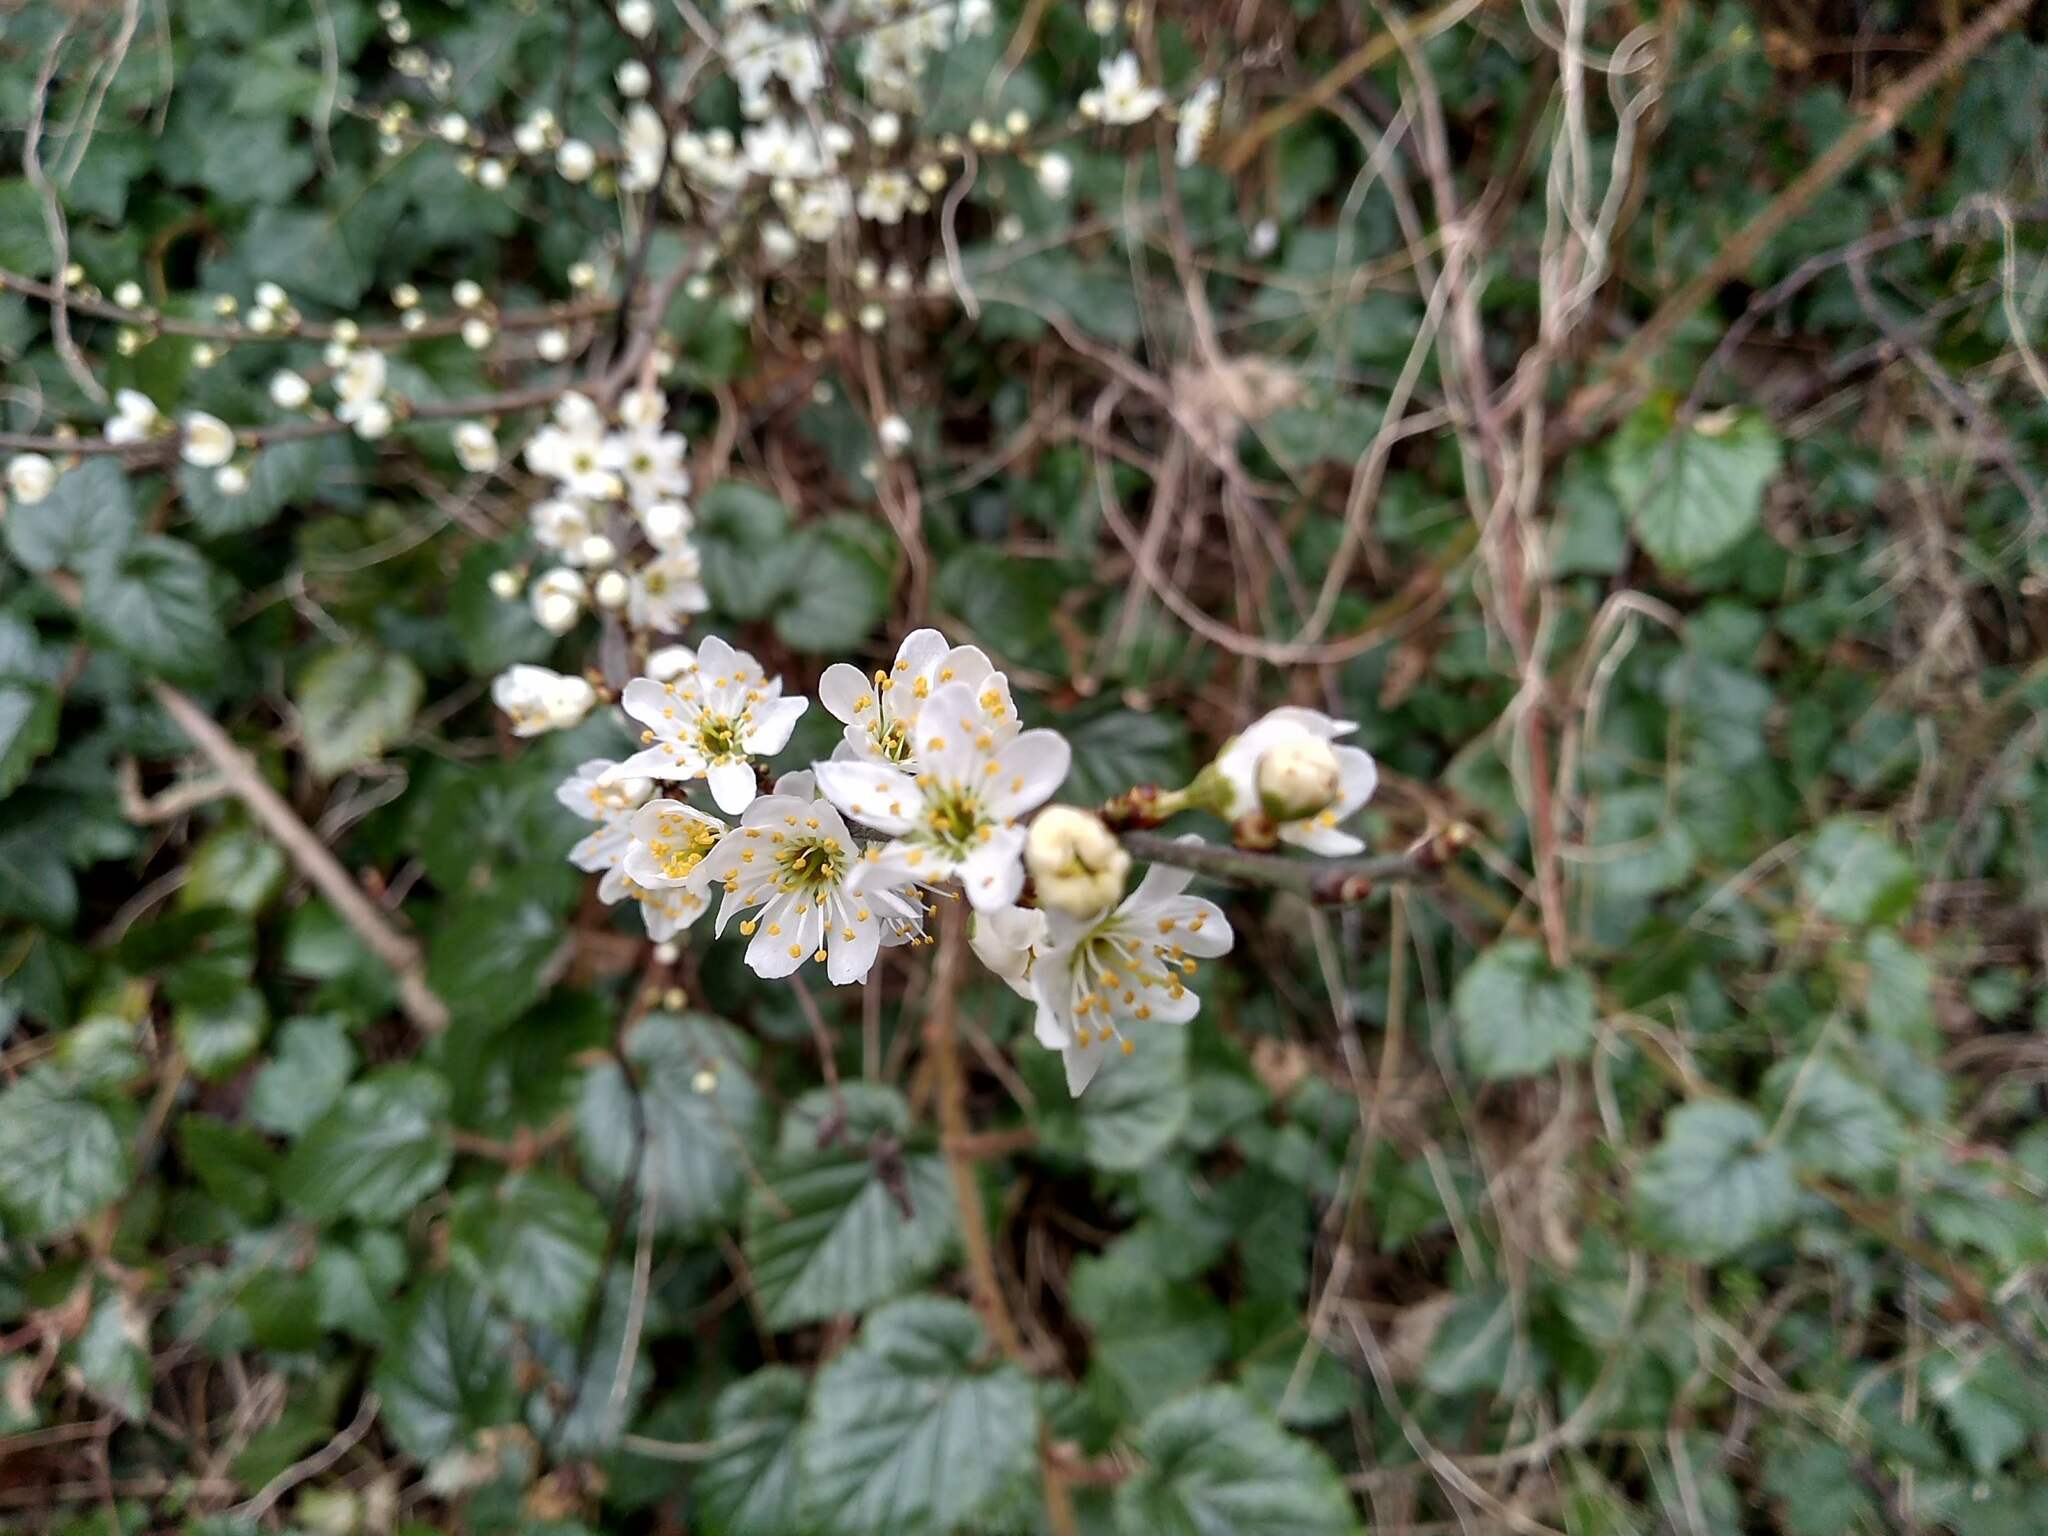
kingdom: Plantae
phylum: Tracheophyta
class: Magnoliopsida
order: Rosales
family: Rosaceae
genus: Prunus
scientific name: Prunus spinosa
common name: Blackthorn
